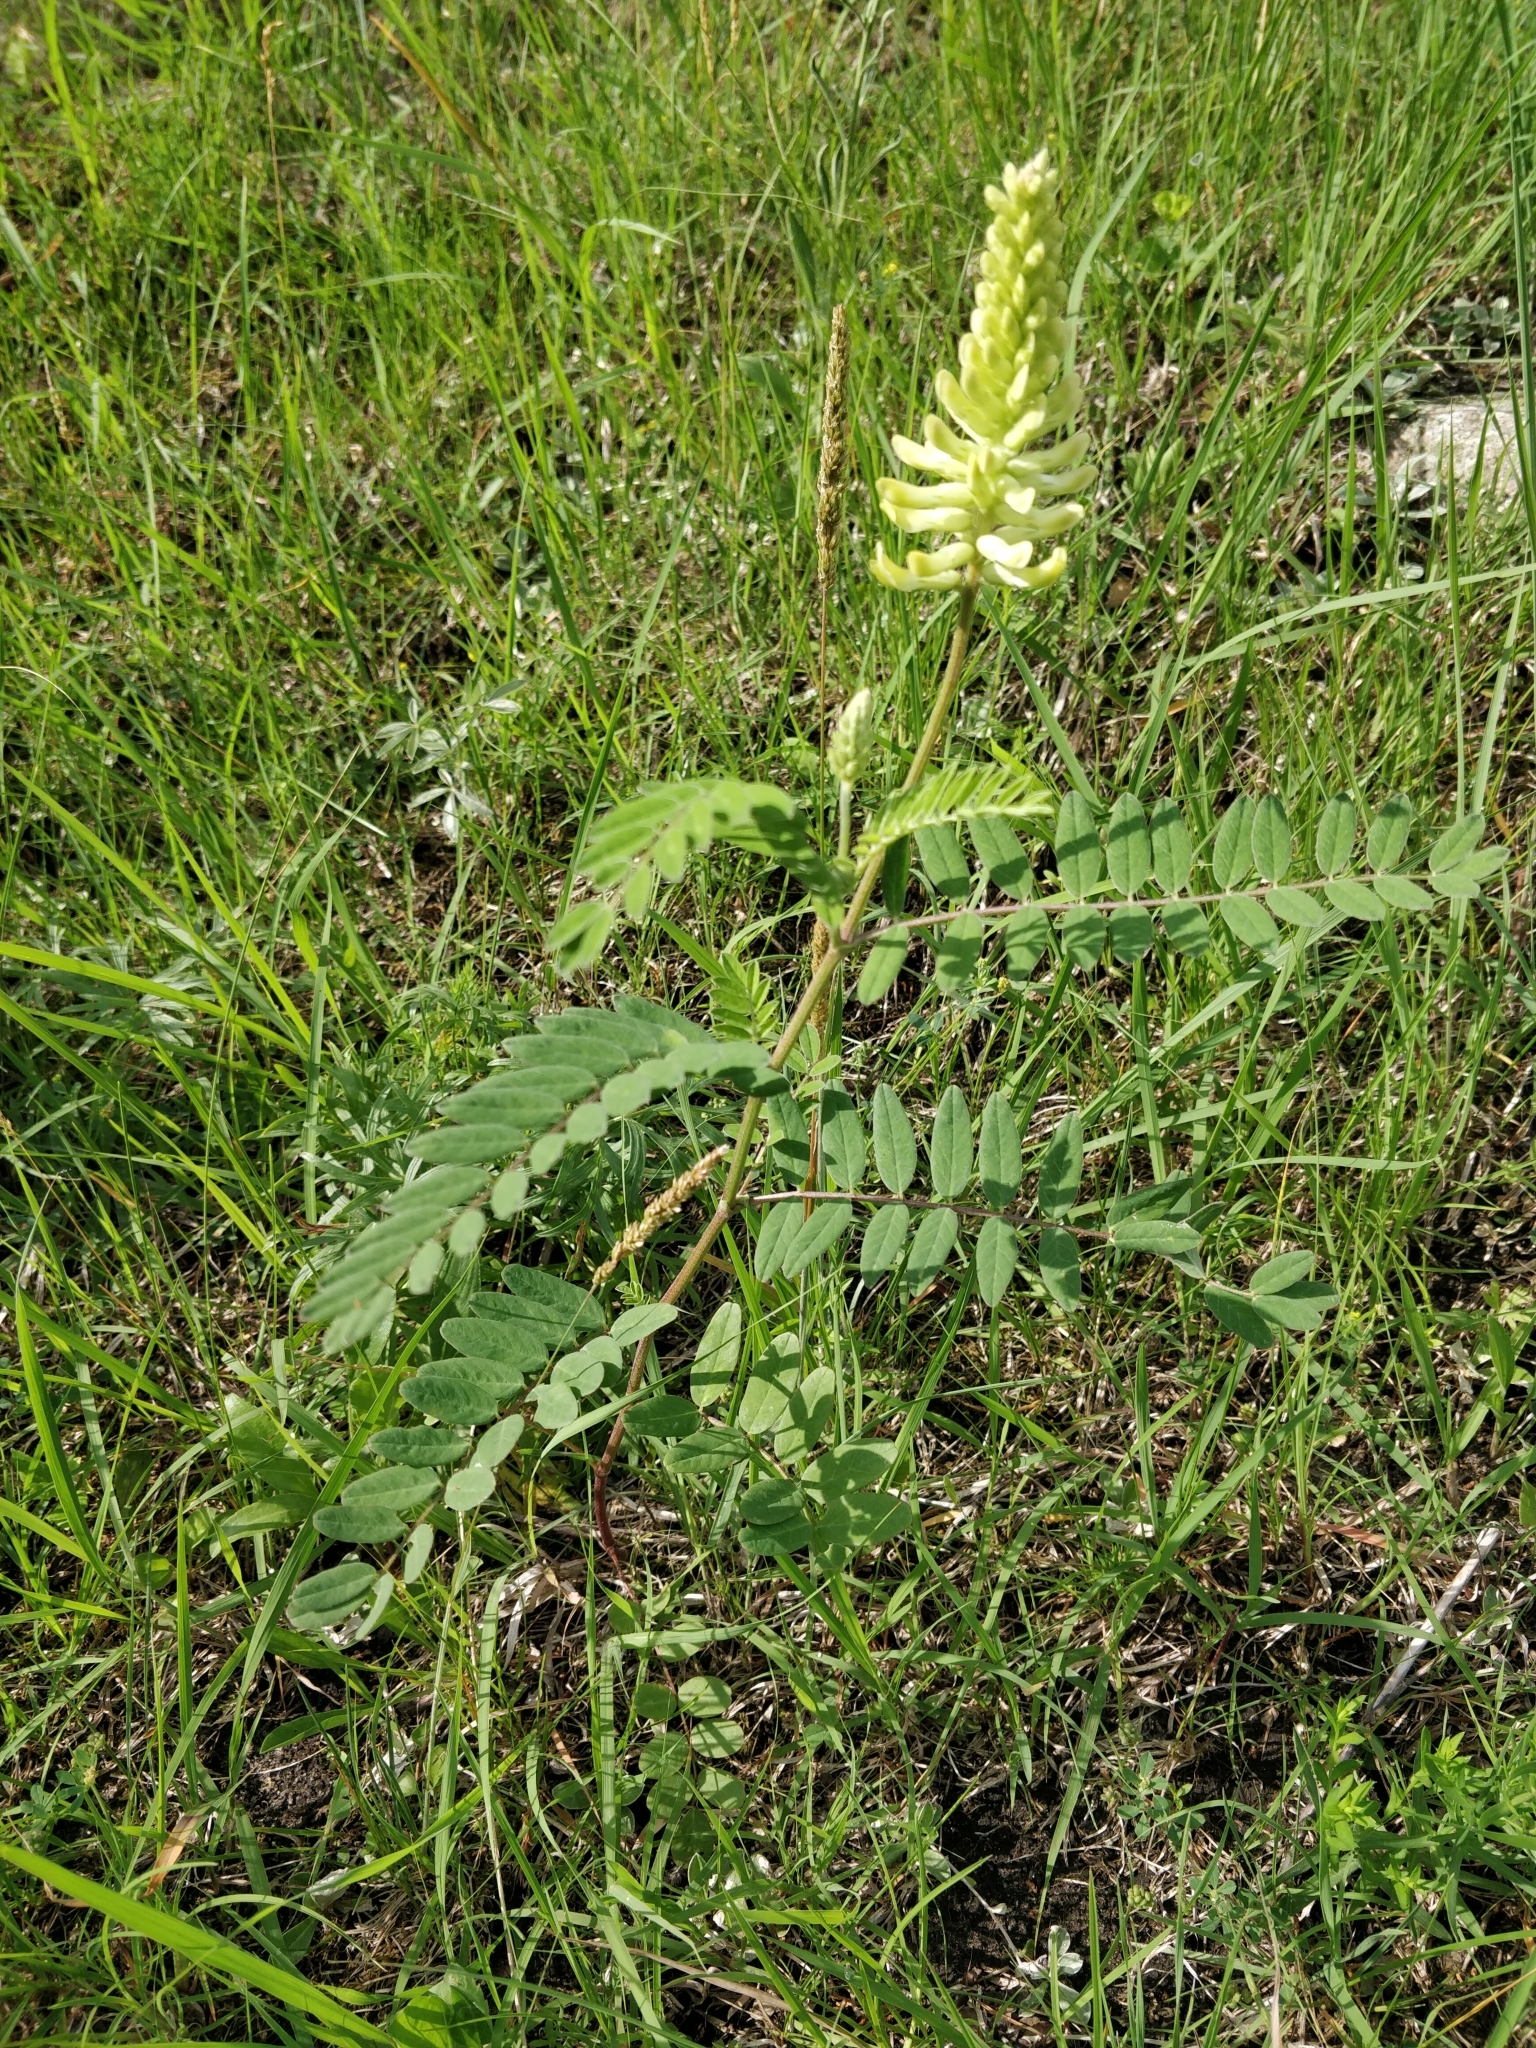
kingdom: Plantae
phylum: Tracheophyta
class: Magnoliopsida
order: Fabales
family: Fabaceae
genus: Astragalus
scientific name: Astragalus canadensis
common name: Canada milk-vetch
